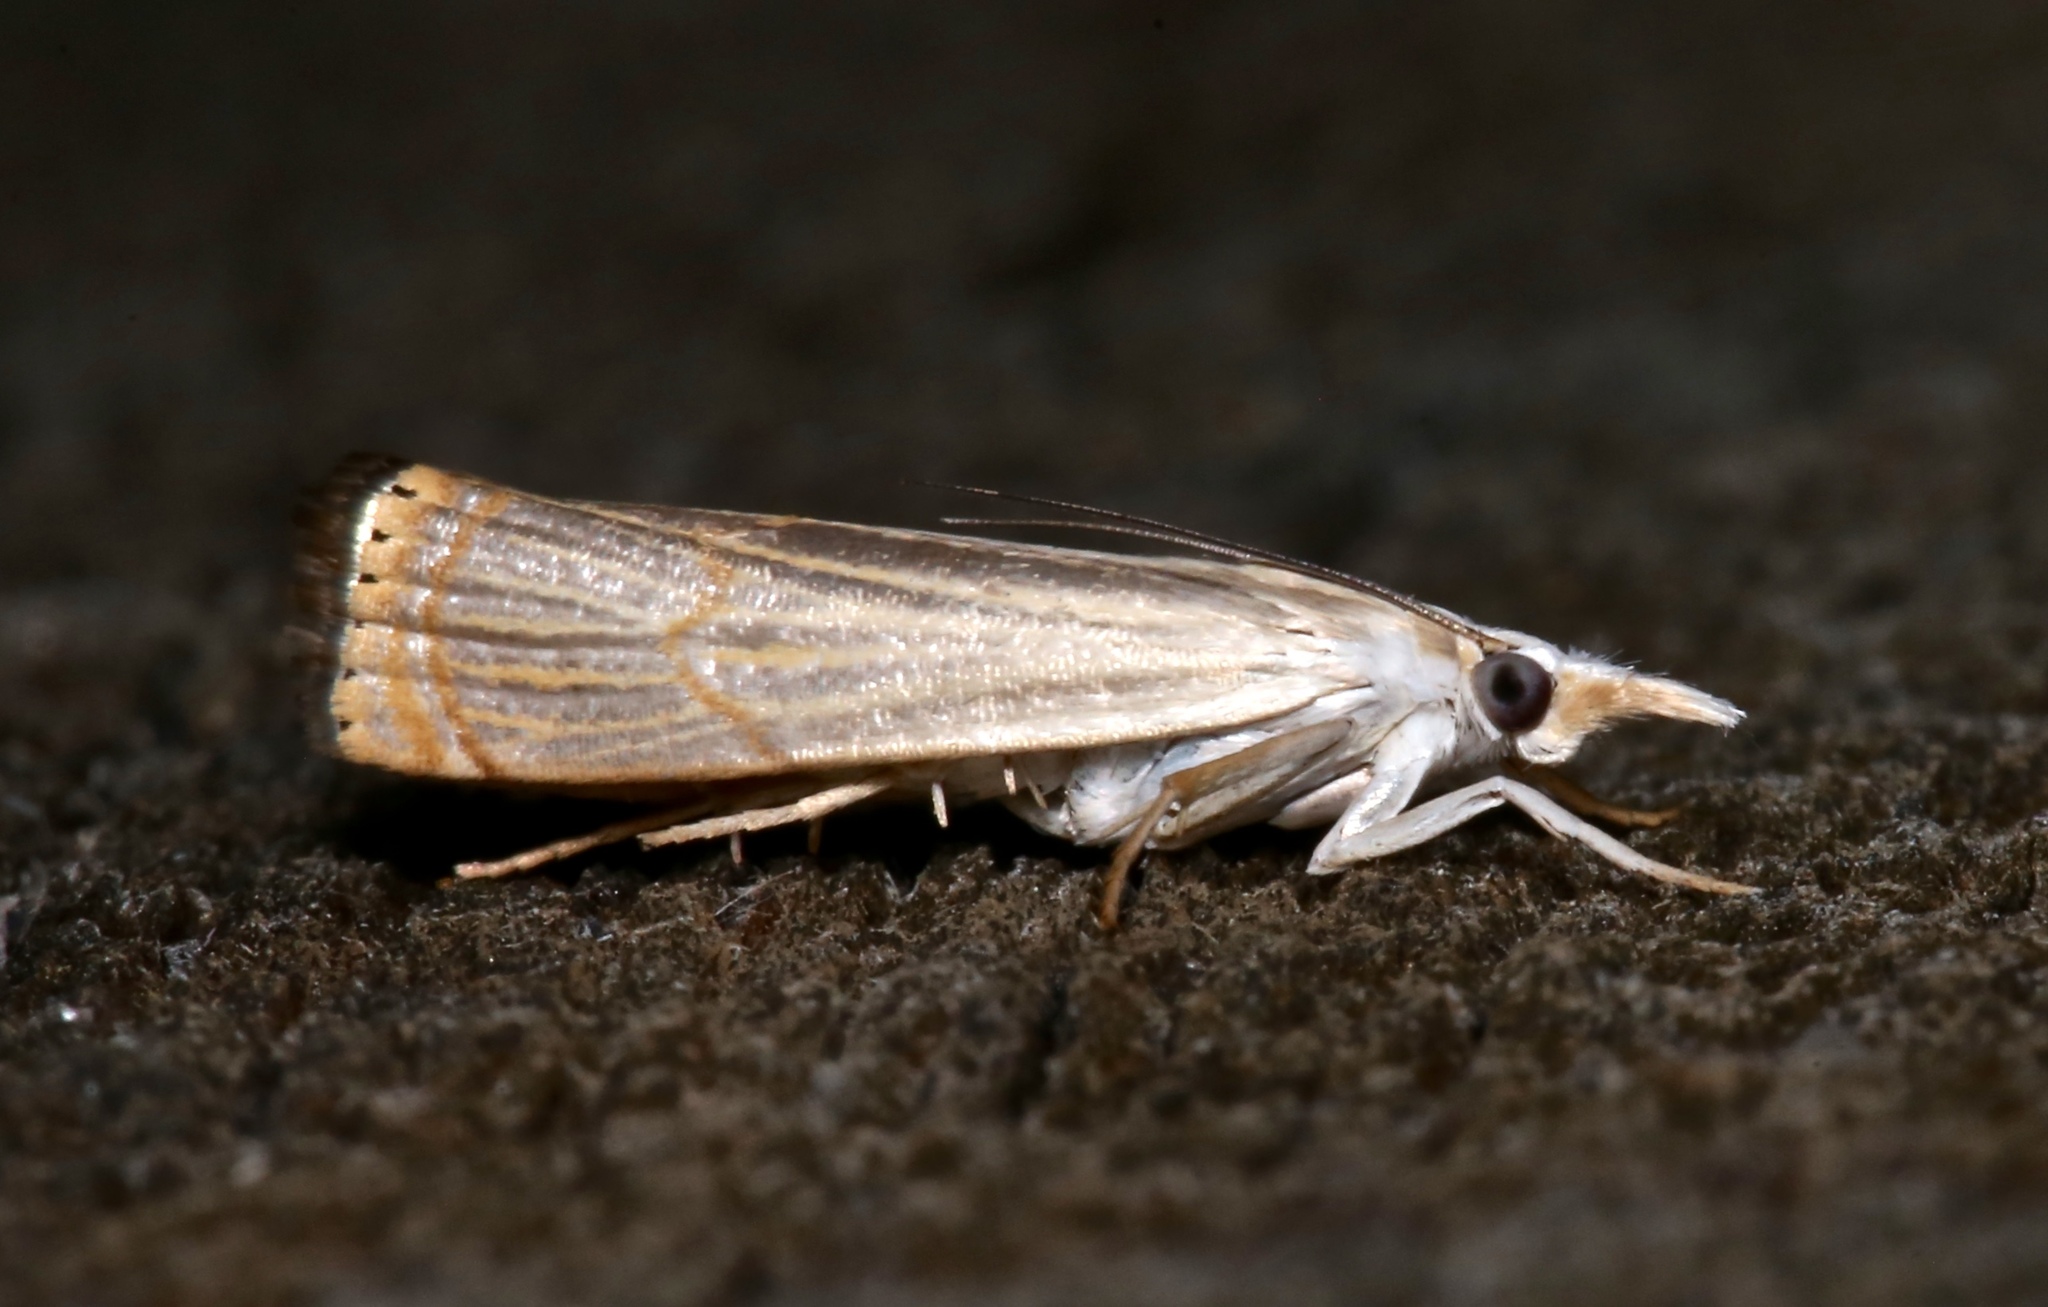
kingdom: Animalia
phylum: Arthropoda
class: Insecta
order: Lepidoptera
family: Crambidae
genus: Chrysoteuchia
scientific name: Chrysoteuchia topiarius
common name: Topiary grass-veneer
